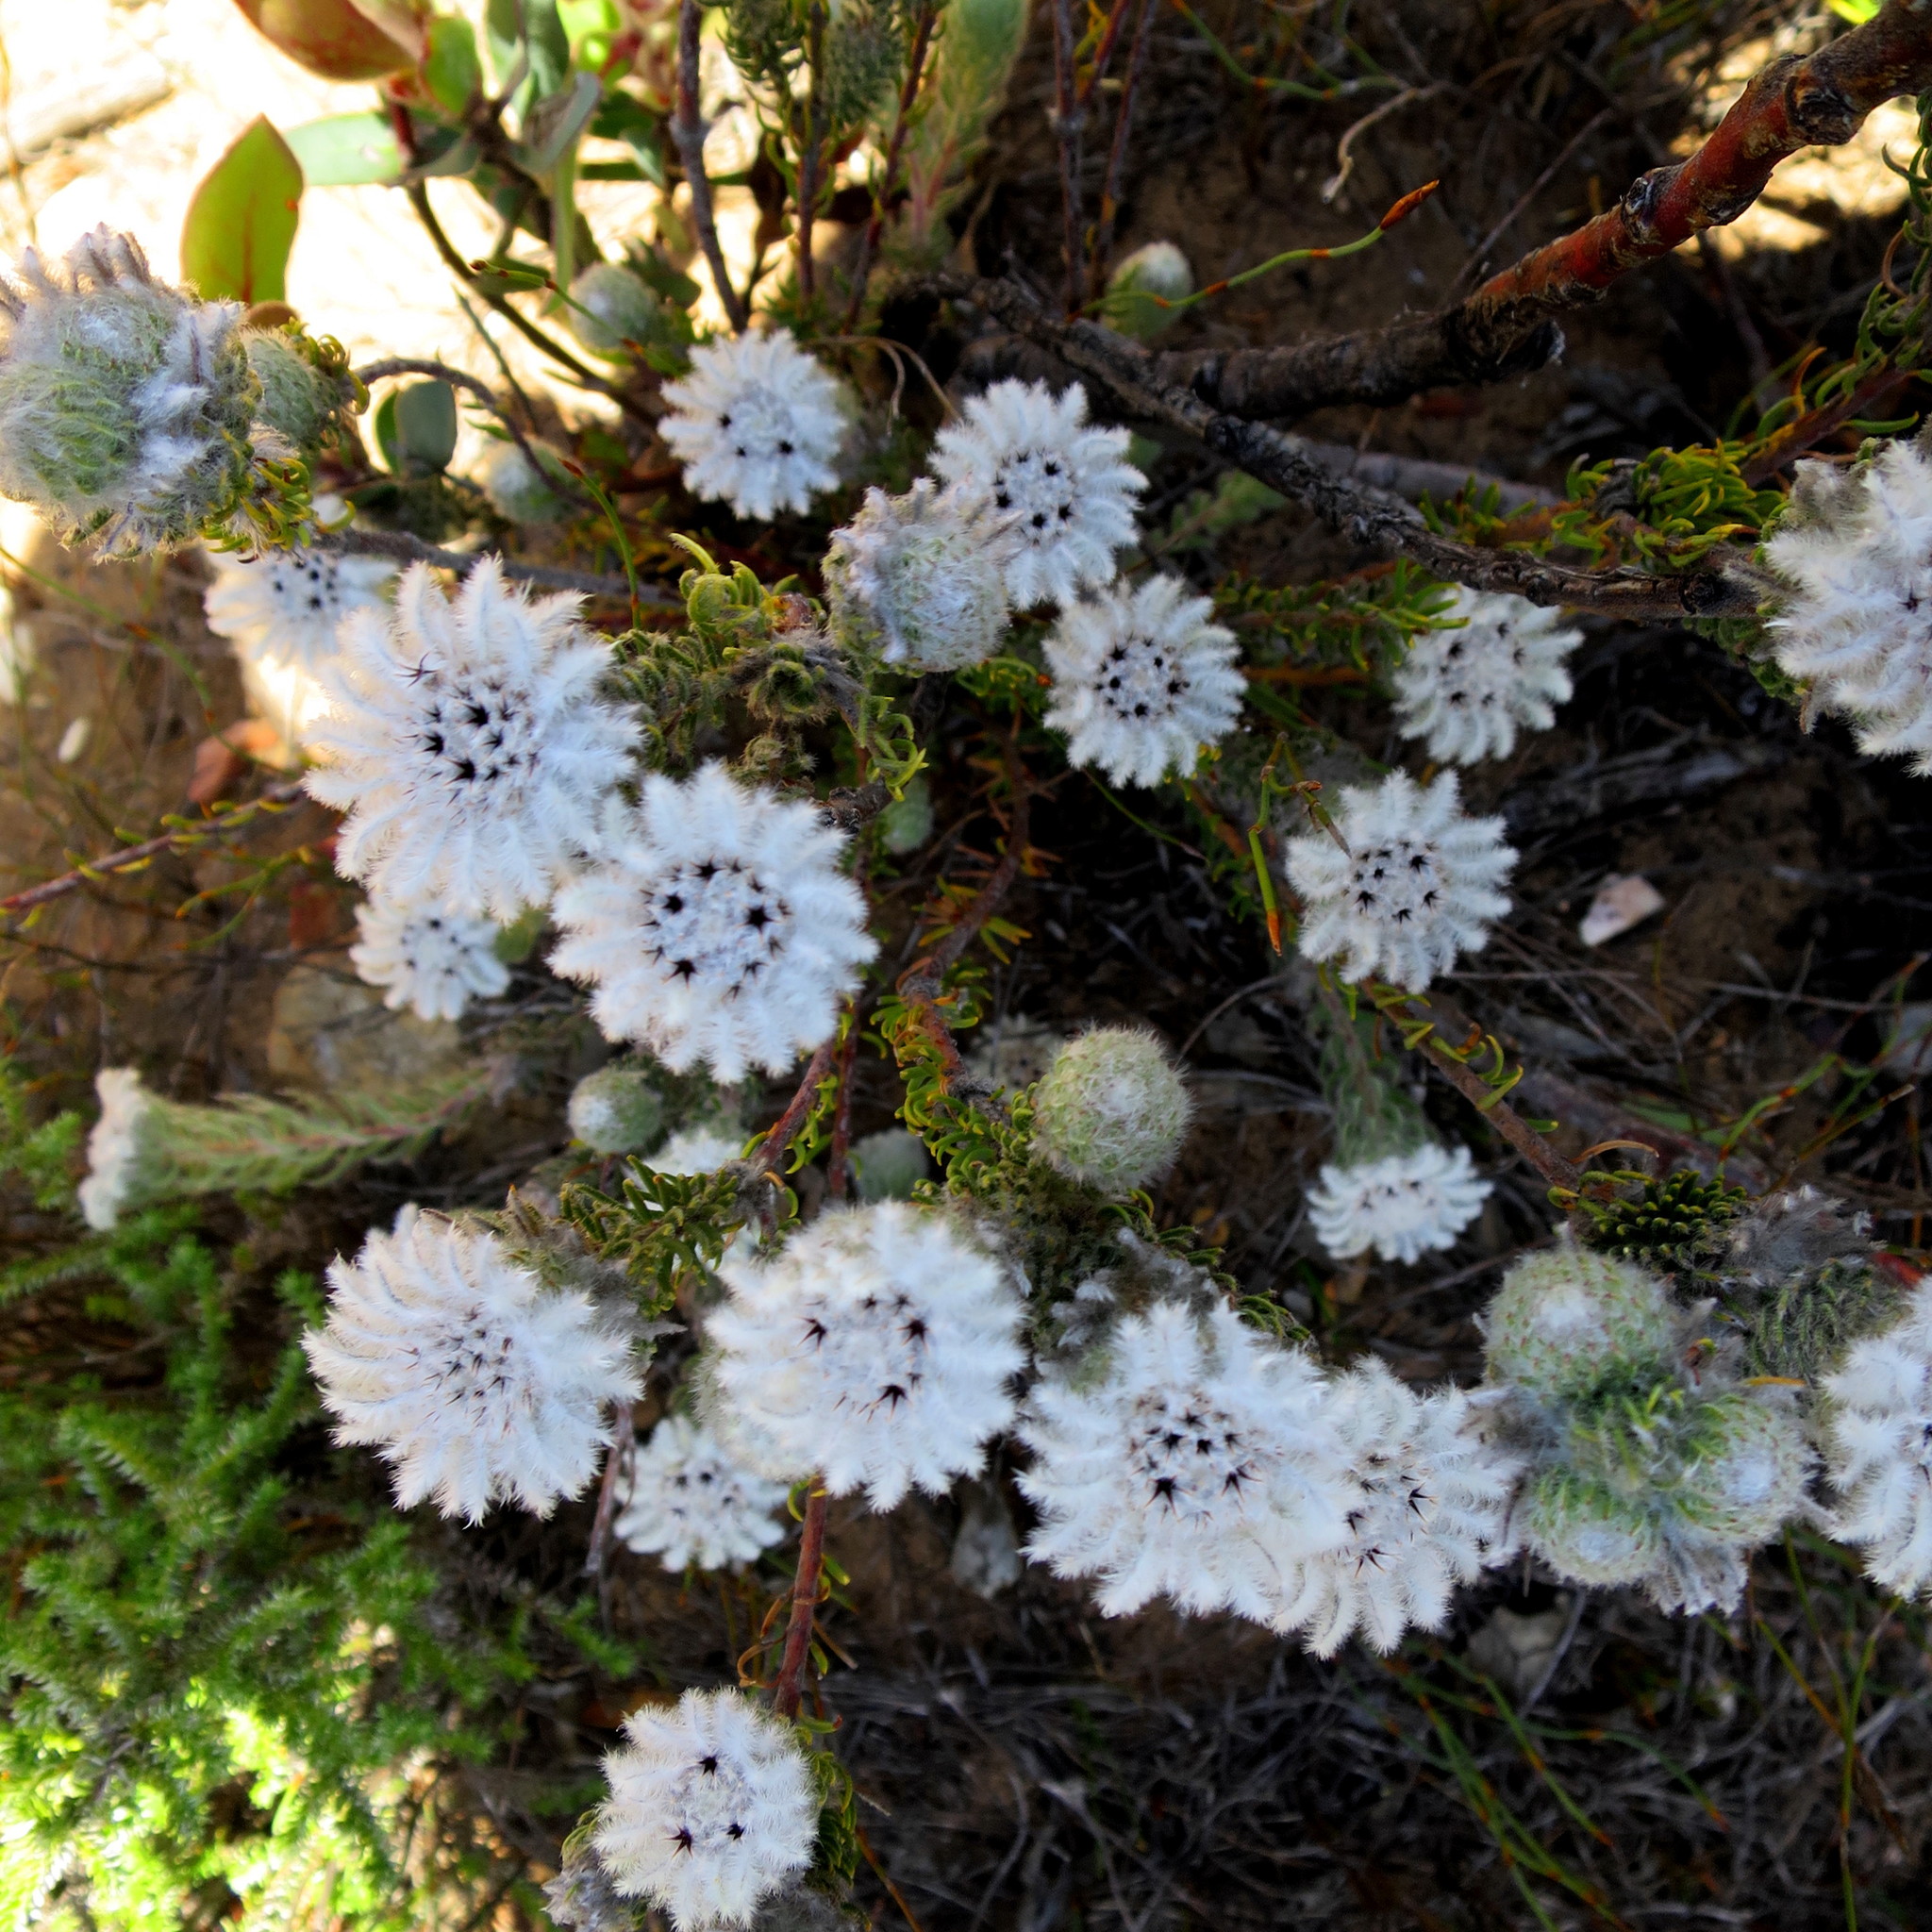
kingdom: Plantae
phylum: Tracheophyta
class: Magnoliopsida
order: Rosales
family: Rhamnaceae
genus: Phylica
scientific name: Phylica meyeri
